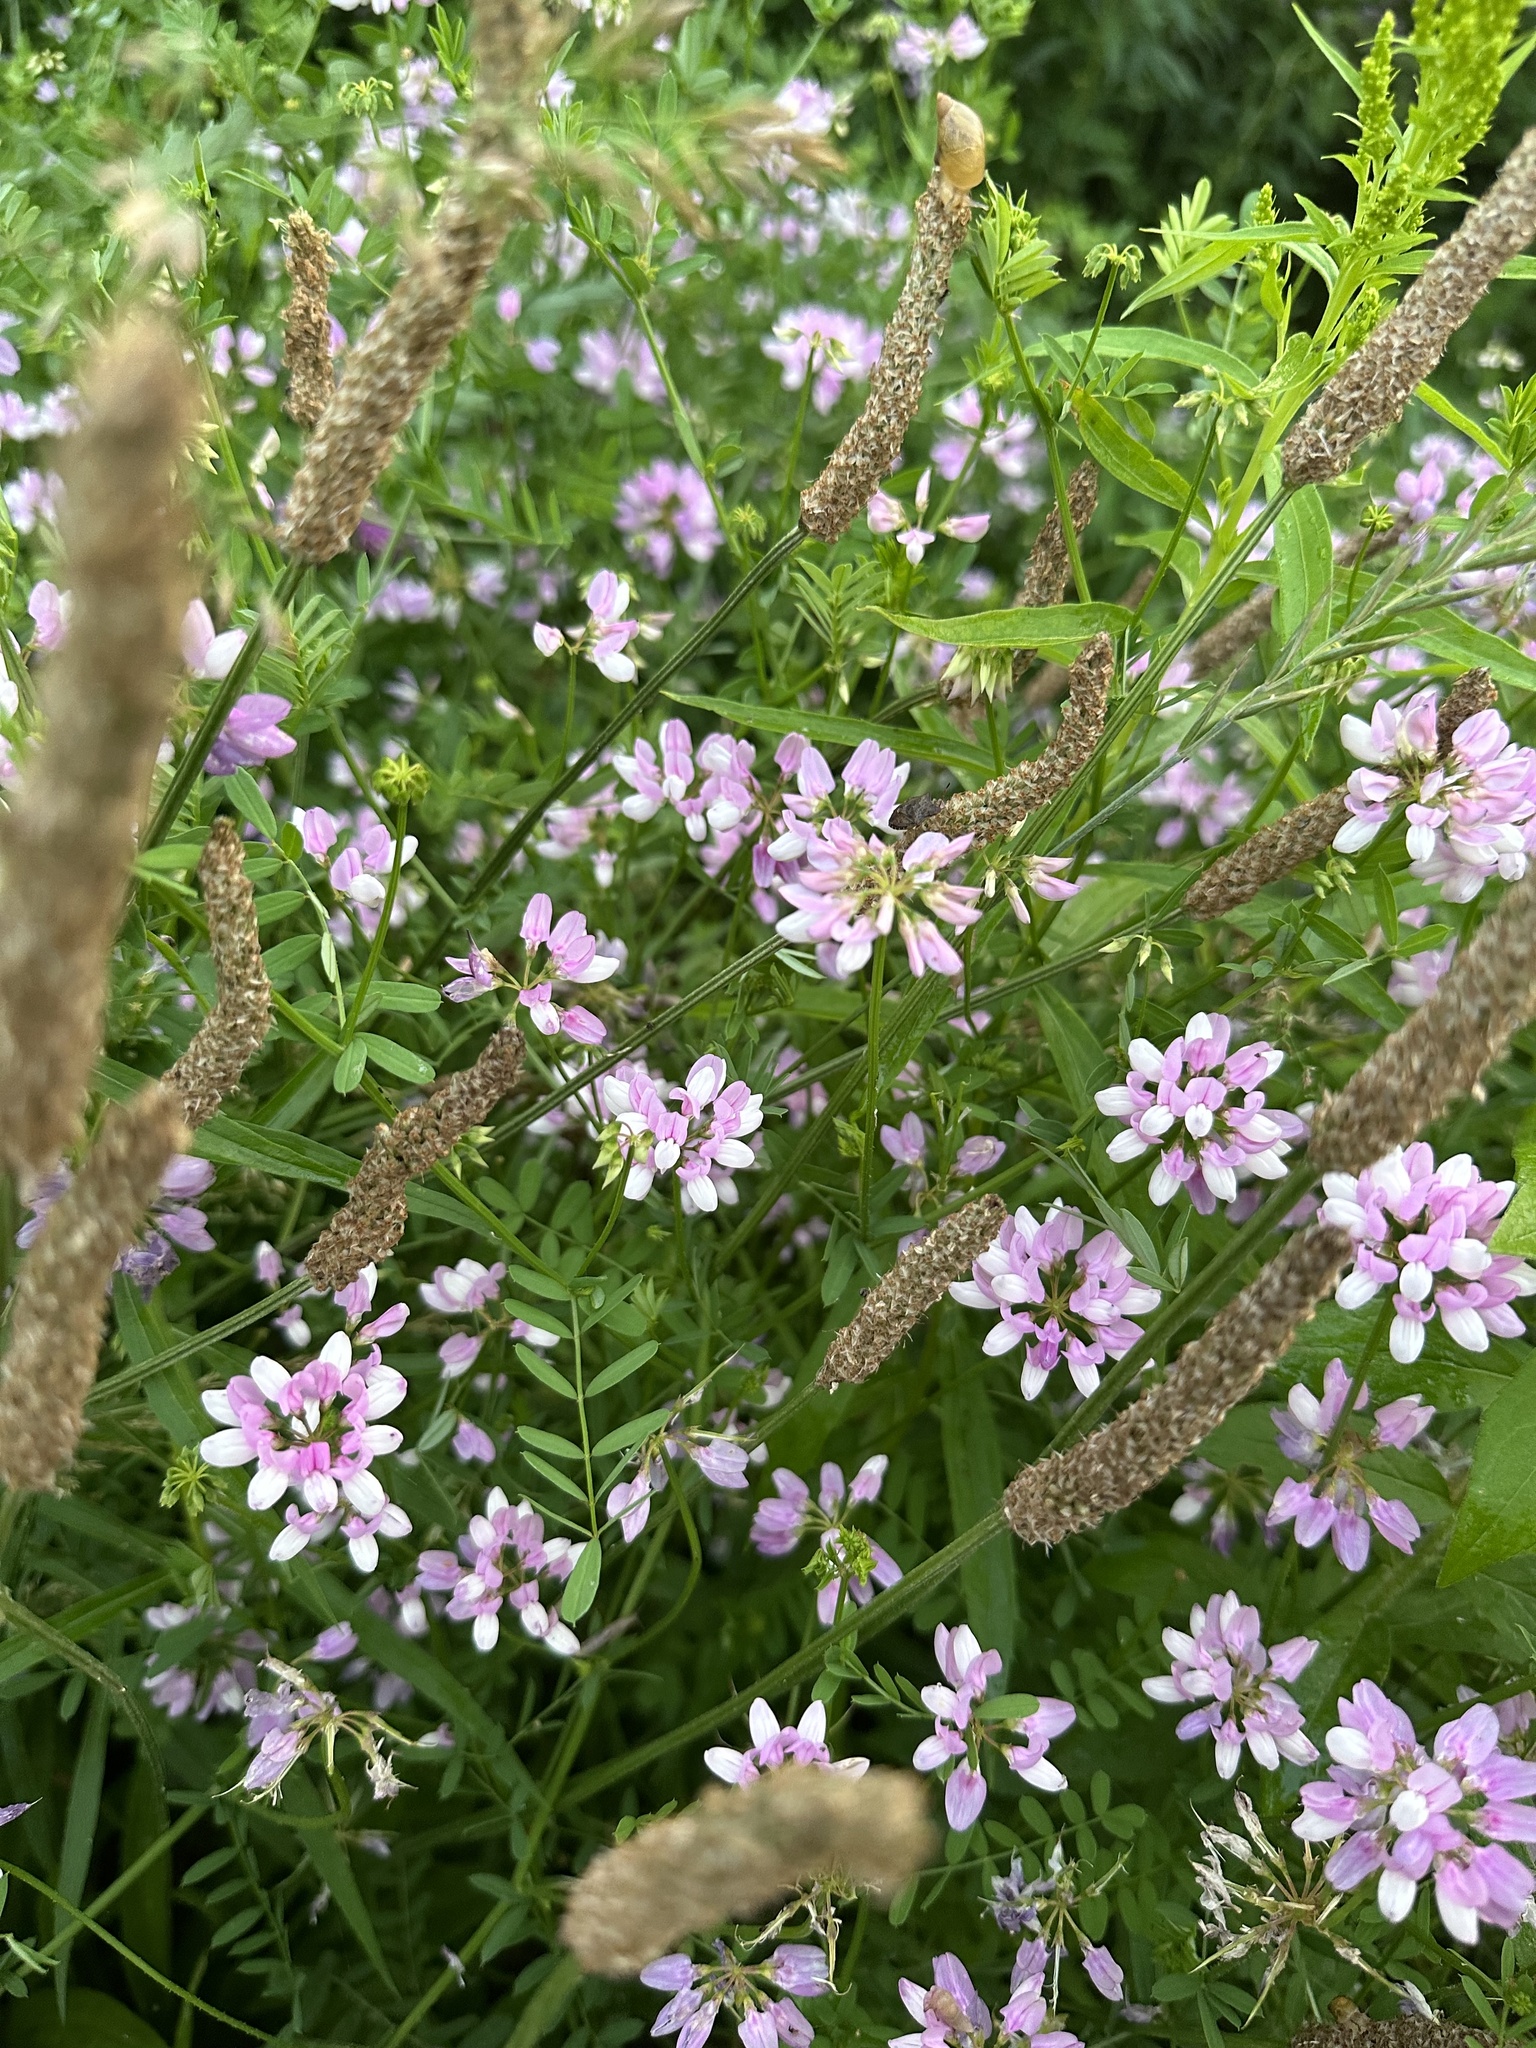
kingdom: Plantae
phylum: Tracheophyta
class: Magnoliopsida
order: Fabales
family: Fabaceae
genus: Coronilla
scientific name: Coronilla varia
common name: Crownvetch
